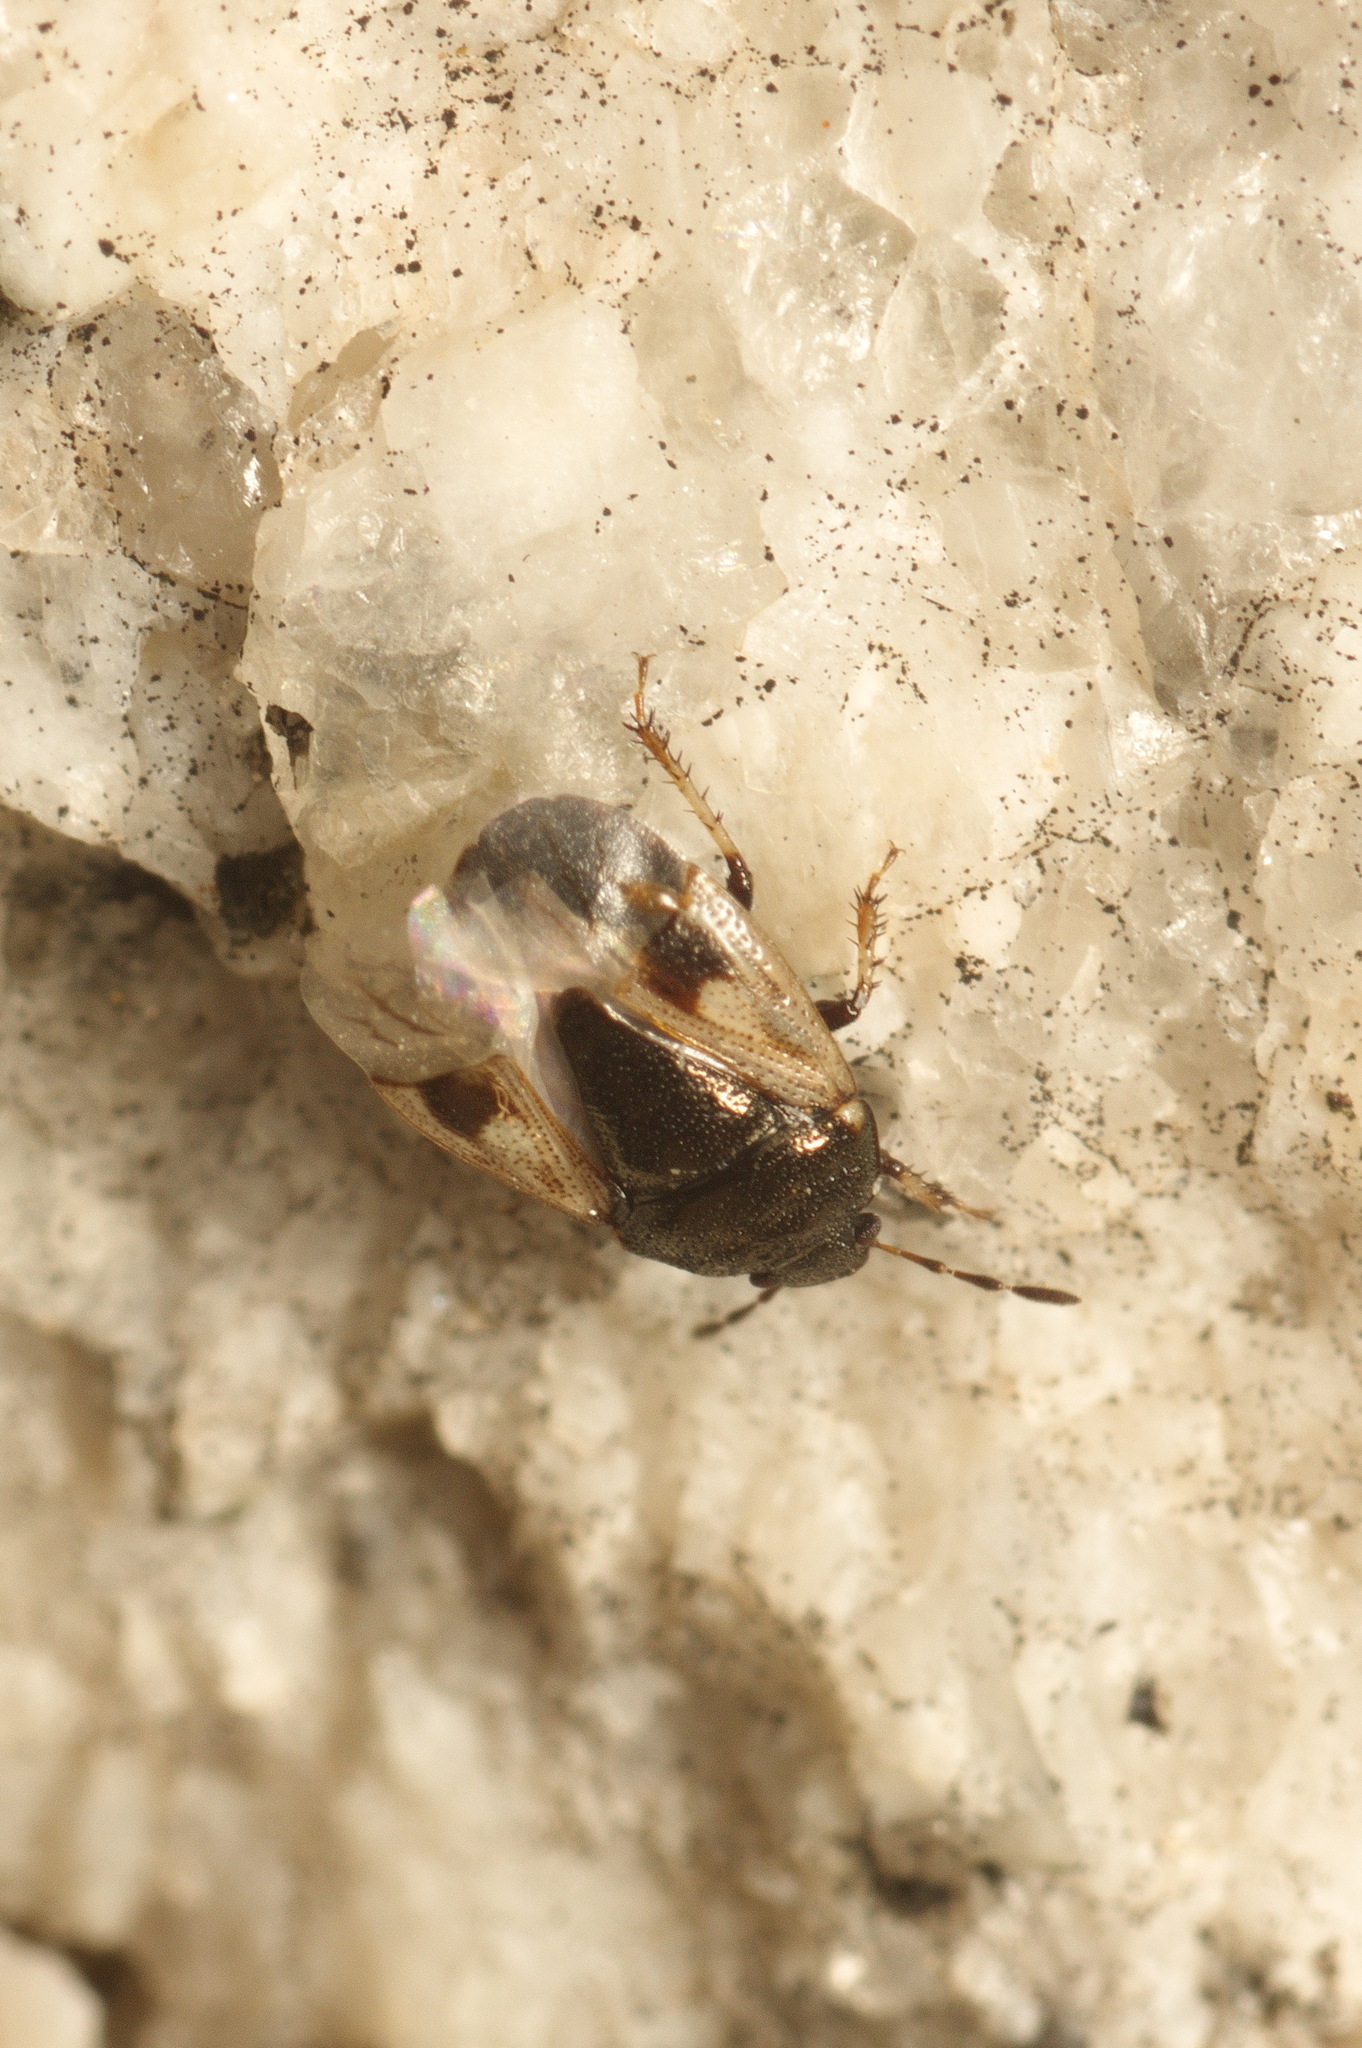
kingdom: Animalia
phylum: Arthropoda
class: Insecta
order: Hemiptera
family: Cydnidae
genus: Crocistethus
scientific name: Crocistethus waltlianus
